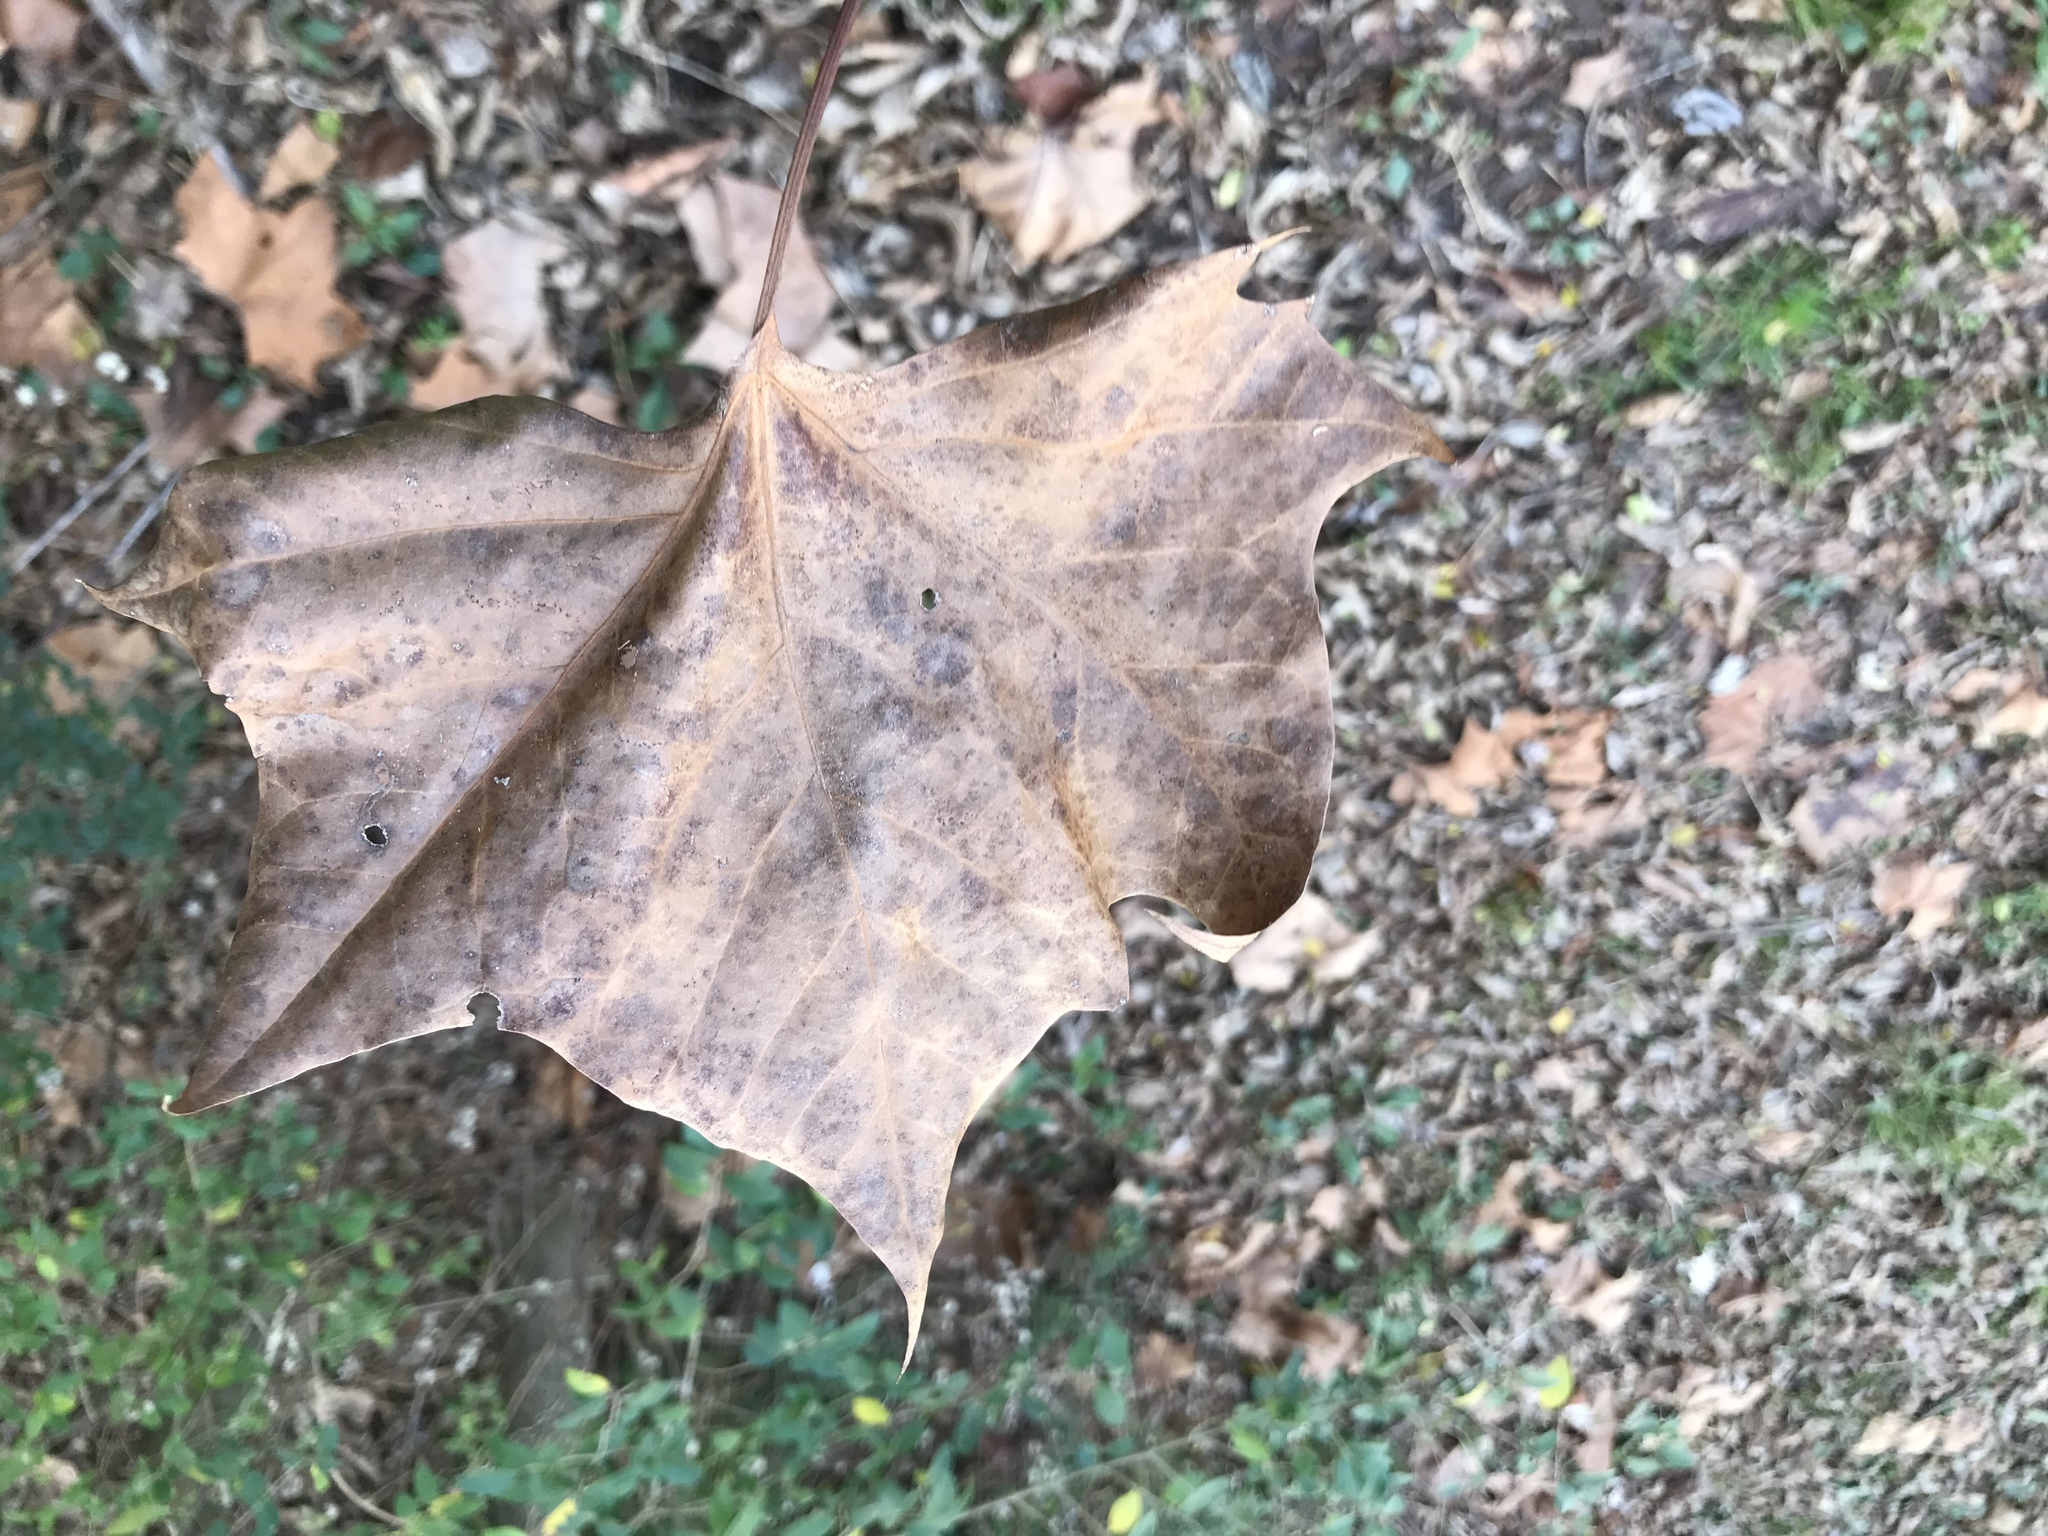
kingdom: Plantae
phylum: Tracheophyta
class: Magnoliopsida
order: Proteales
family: Platanaceae
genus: Platanus
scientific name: Platanus occidentalis
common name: American sycamore
